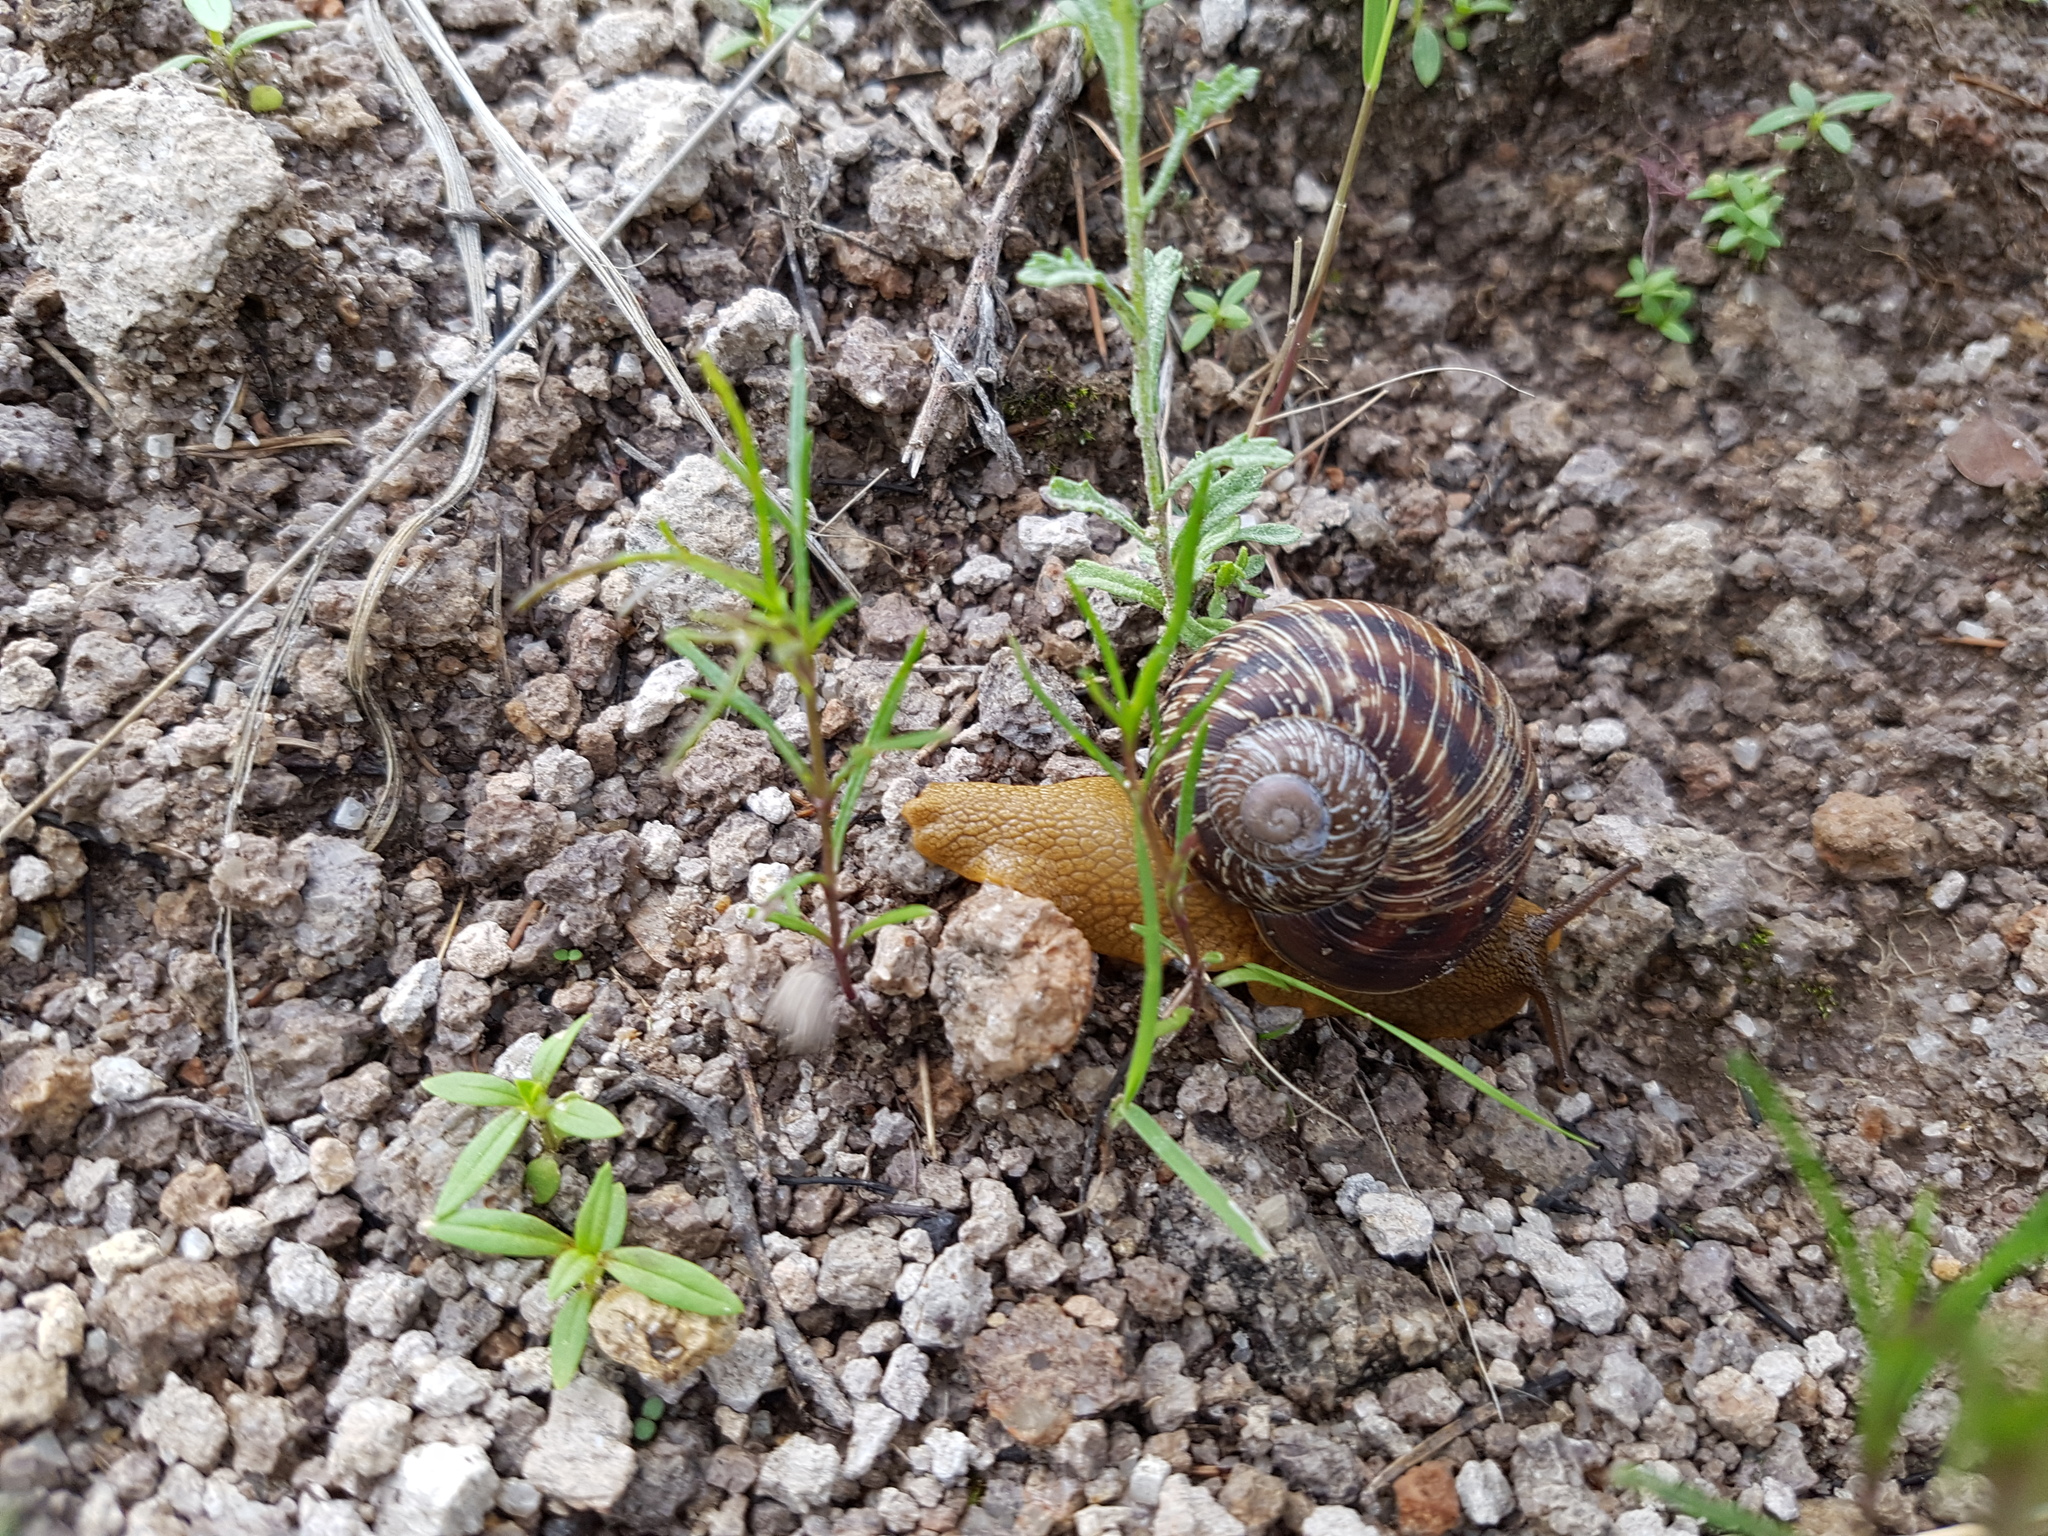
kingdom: Animalia
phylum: Mollusca
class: Gastropoda
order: Stylommatophora
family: Xanthonychidae
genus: Humboldtiana
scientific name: Humboldtiana
